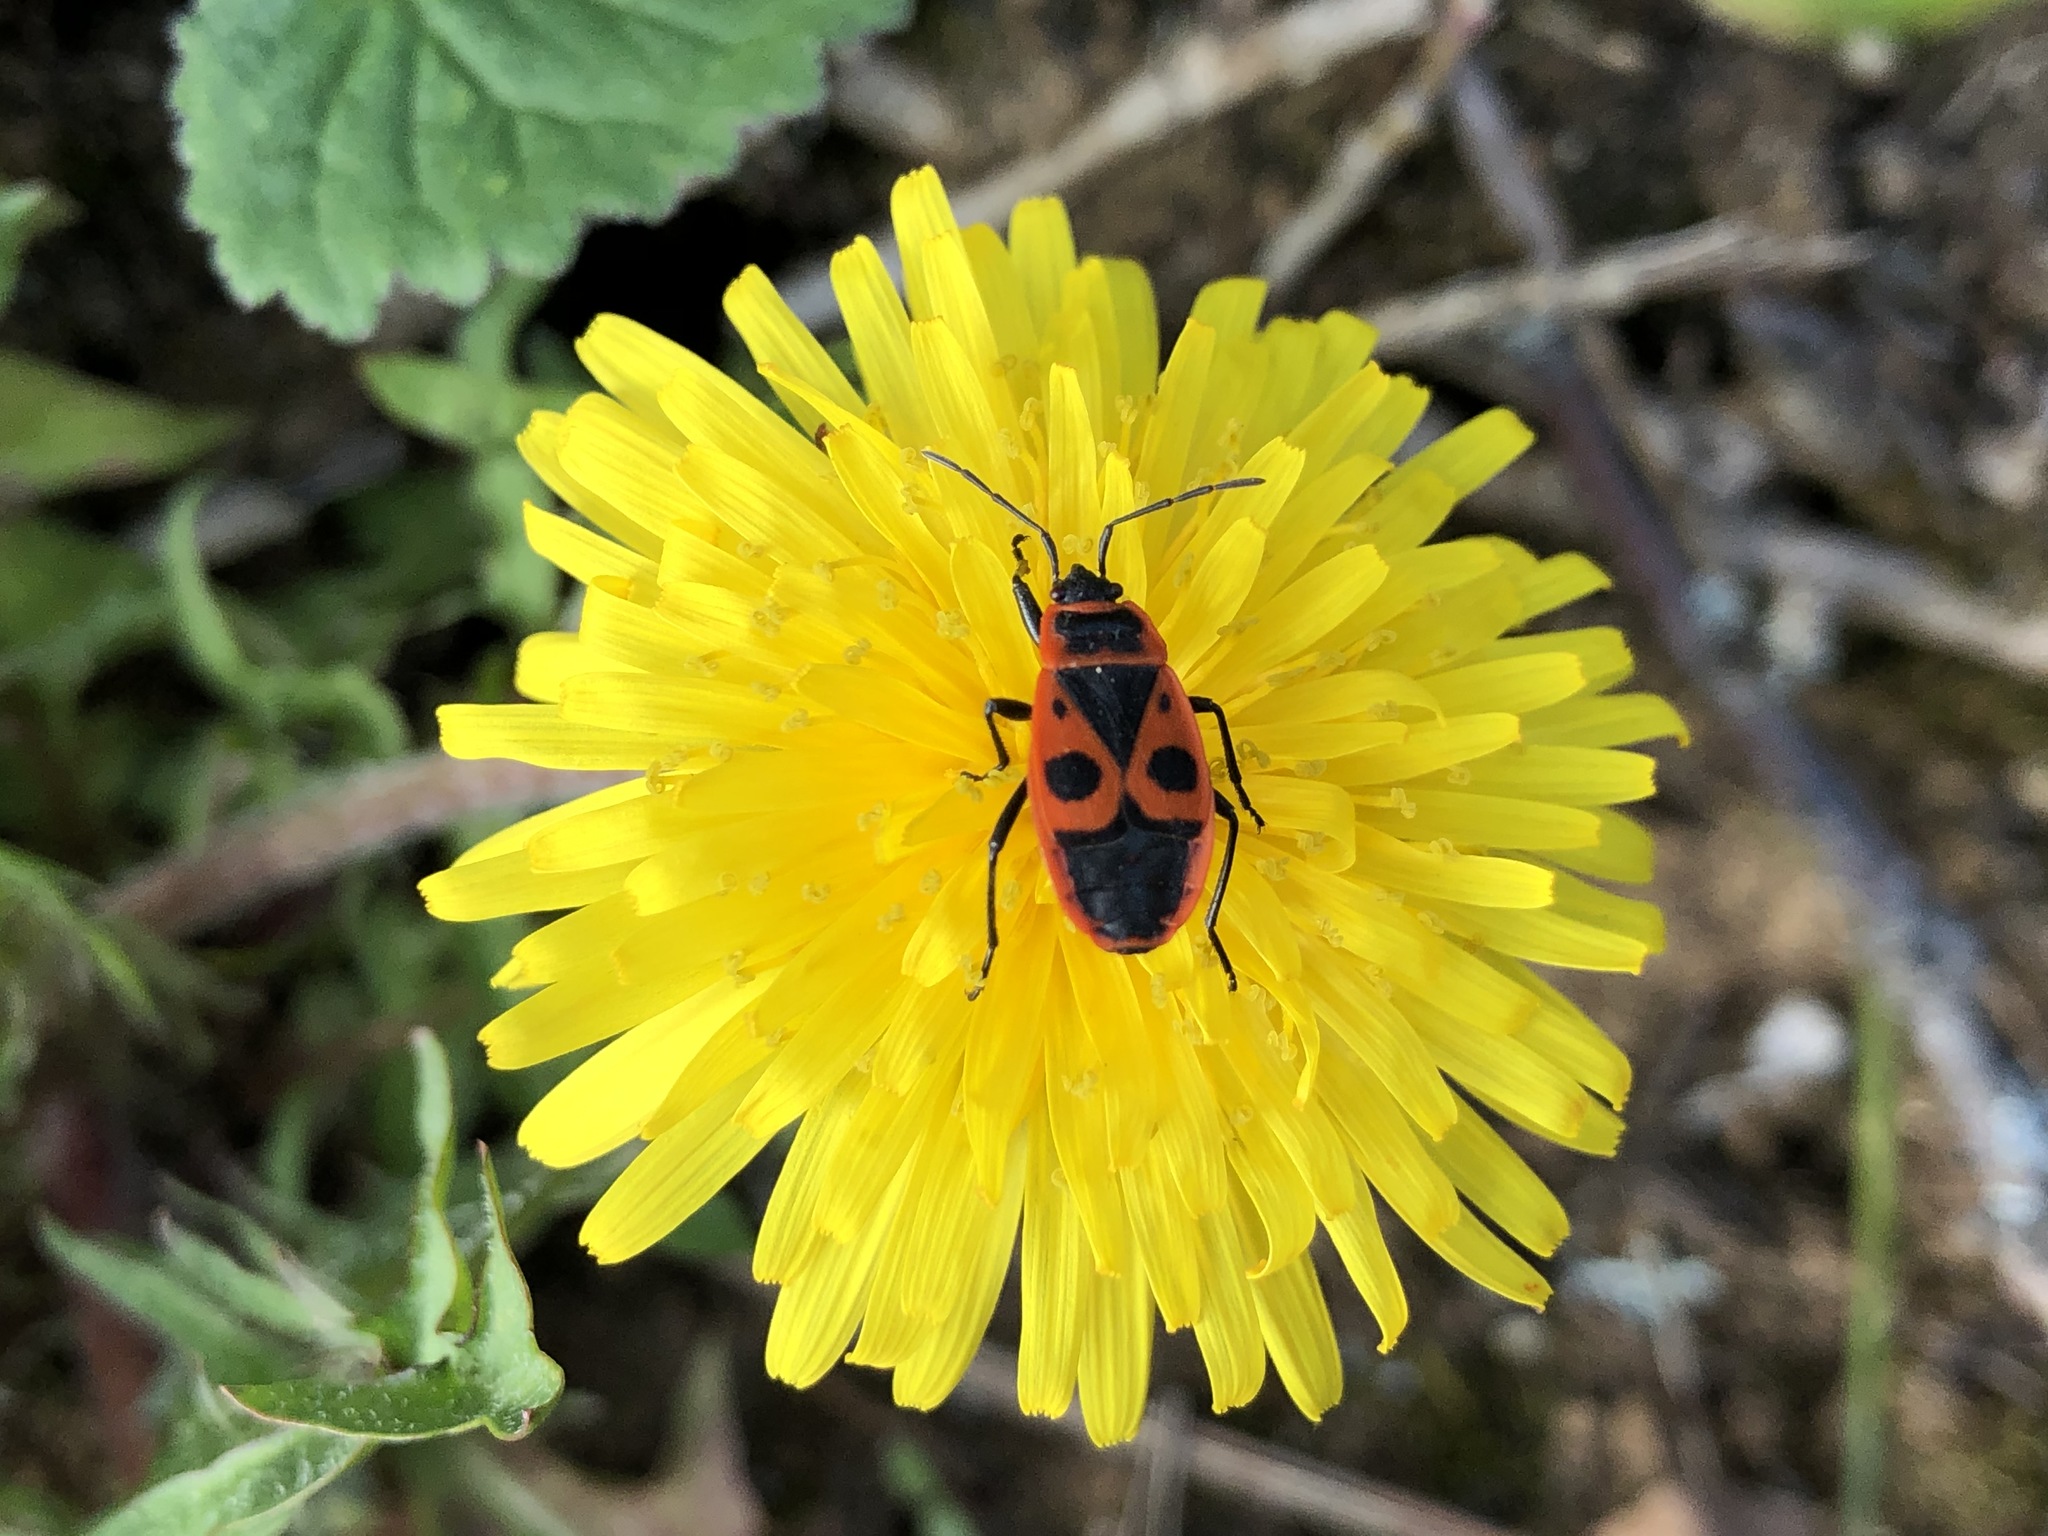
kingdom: Animalia
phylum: Arthropoda
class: Insecta
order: Hemiptera
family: Pyrrhocoridae
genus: Pyrrhocoris
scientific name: Pyrrhocoris apterus
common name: Firebug
